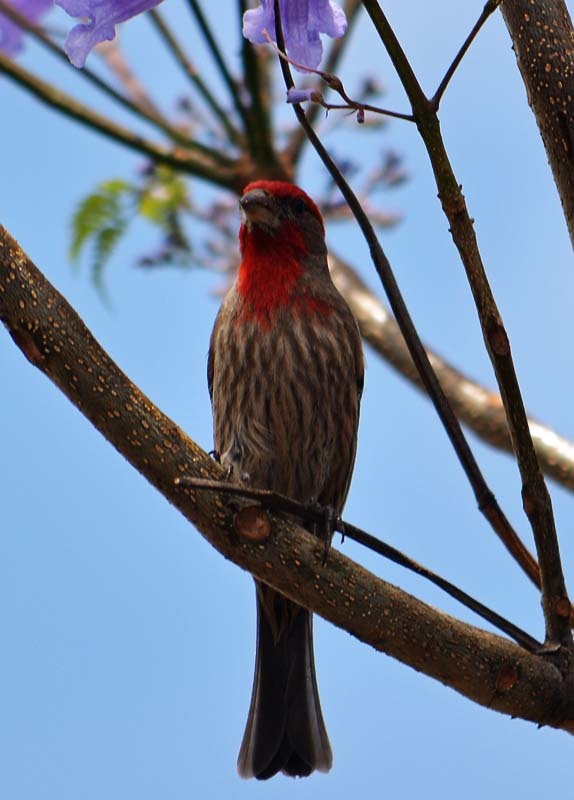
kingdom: Animalia
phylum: Chordata
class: Aves
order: Passeriformes
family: Fringillidae
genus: Haemorhous
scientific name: Haemorhous mexicanus
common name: House finch
